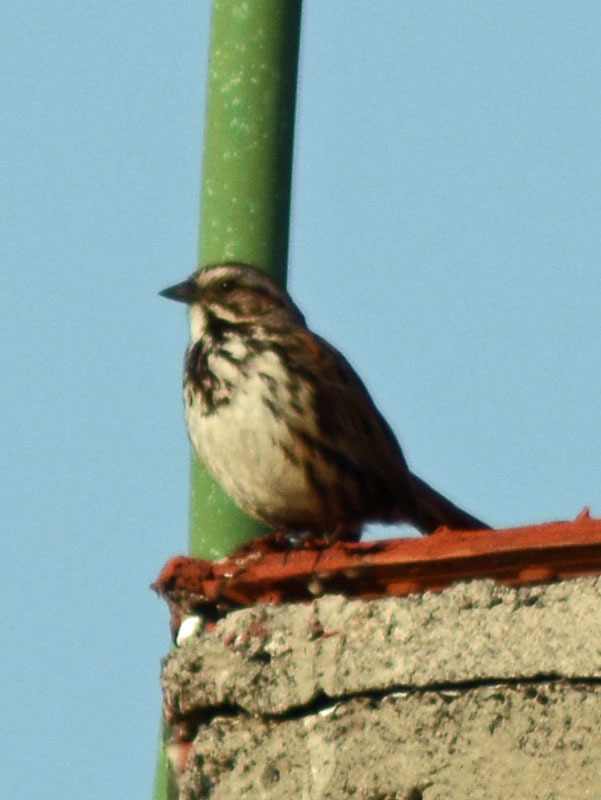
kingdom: Animalia
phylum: Chordata
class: Aves
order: Passeriformes
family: Passerellidae
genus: Melospiza
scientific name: Melospiza melodia
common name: Song sparrow
